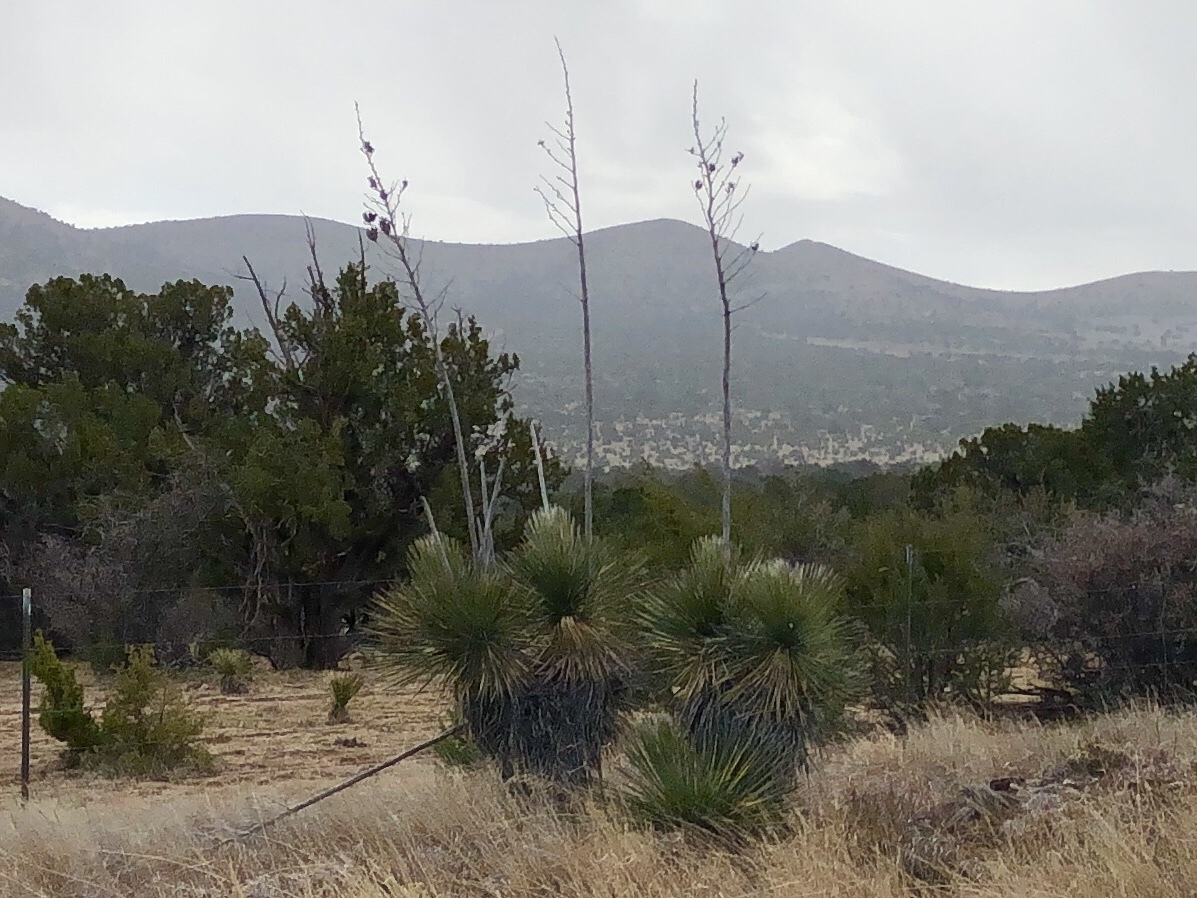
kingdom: Plantae
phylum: Tracheophyta
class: Liliopsida
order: Asparagales
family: Asparagaceae
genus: Yucca
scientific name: Yucca elata
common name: Palmella
